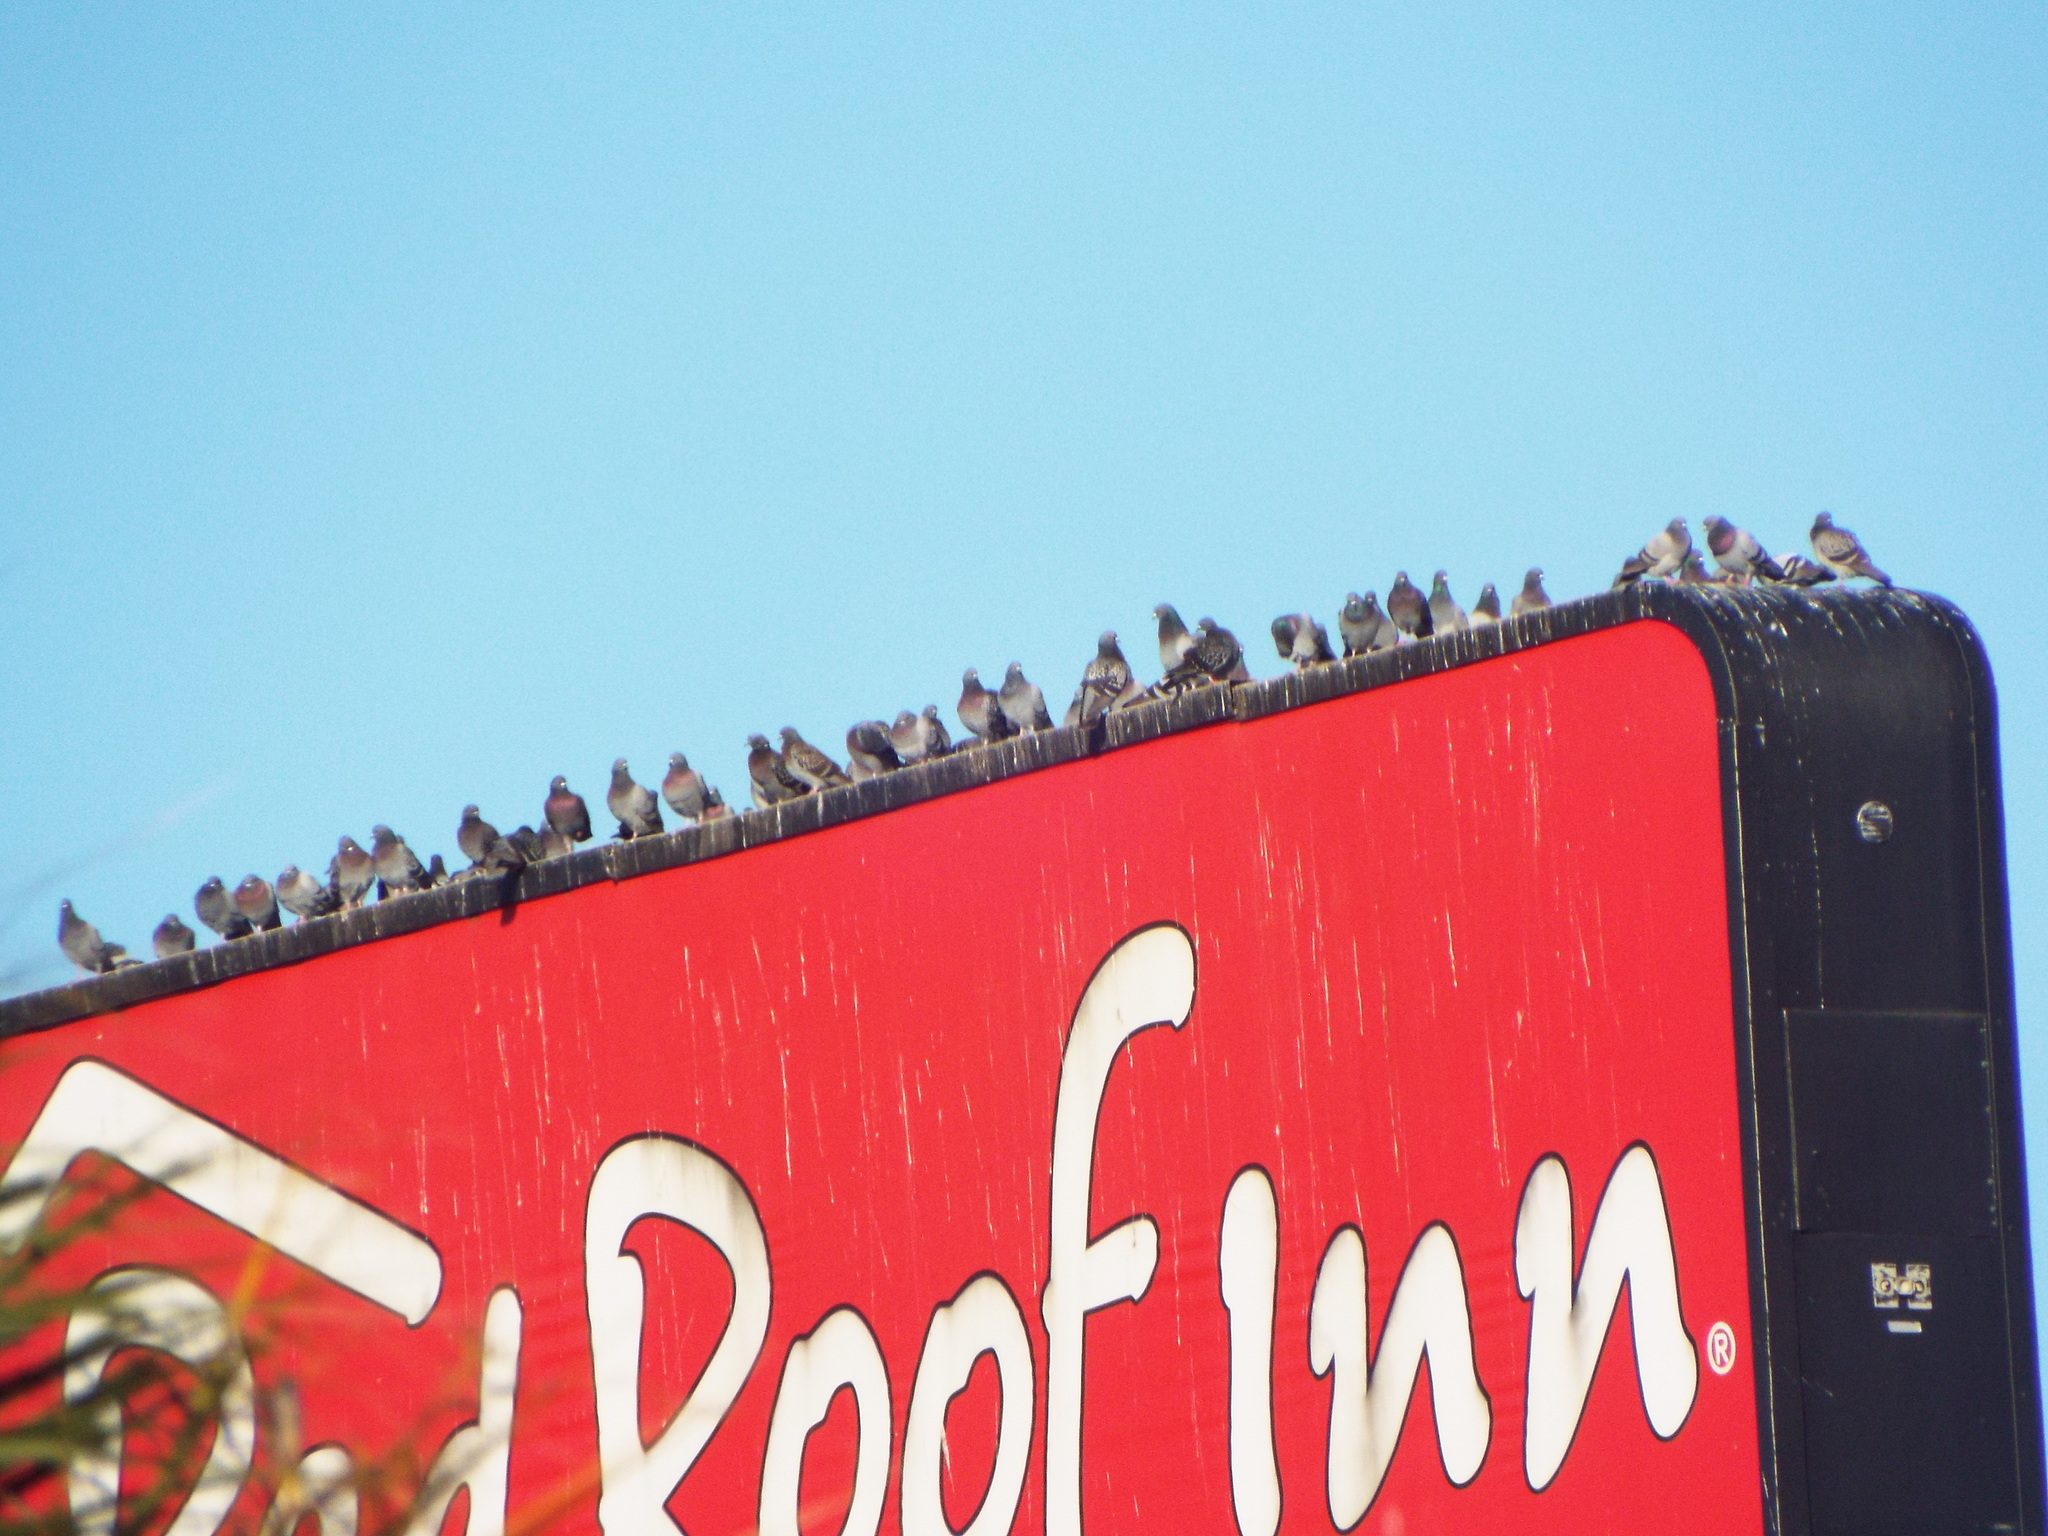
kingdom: Animalia
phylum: Chordata
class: Aves
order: Columbiformes
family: Columbidae
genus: Columba
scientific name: Columba livia
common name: Rock pigeon
